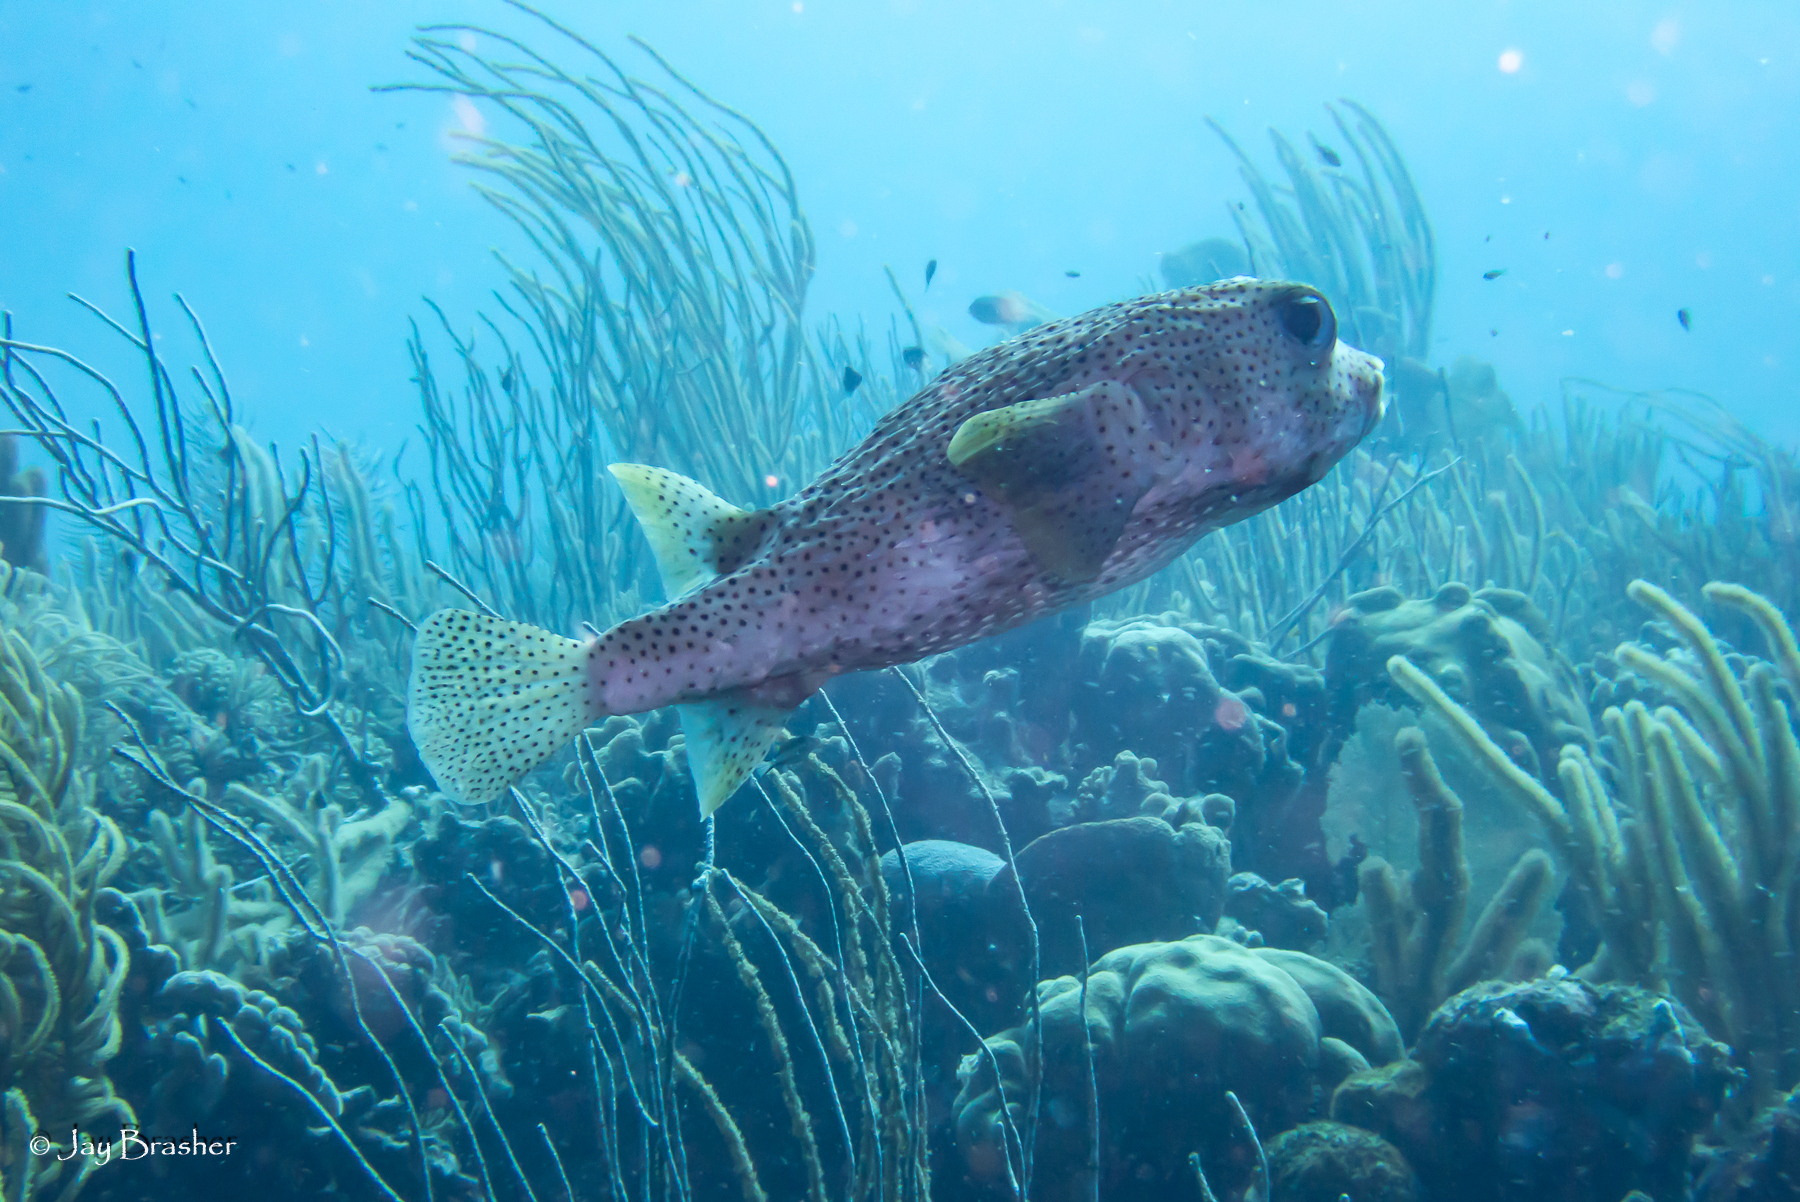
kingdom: Animalia
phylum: Chordata
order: Tetraodontiformes
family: Diodontidae
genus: Diodon
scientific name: Diodon hystrix
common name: Giant porcupinefish
